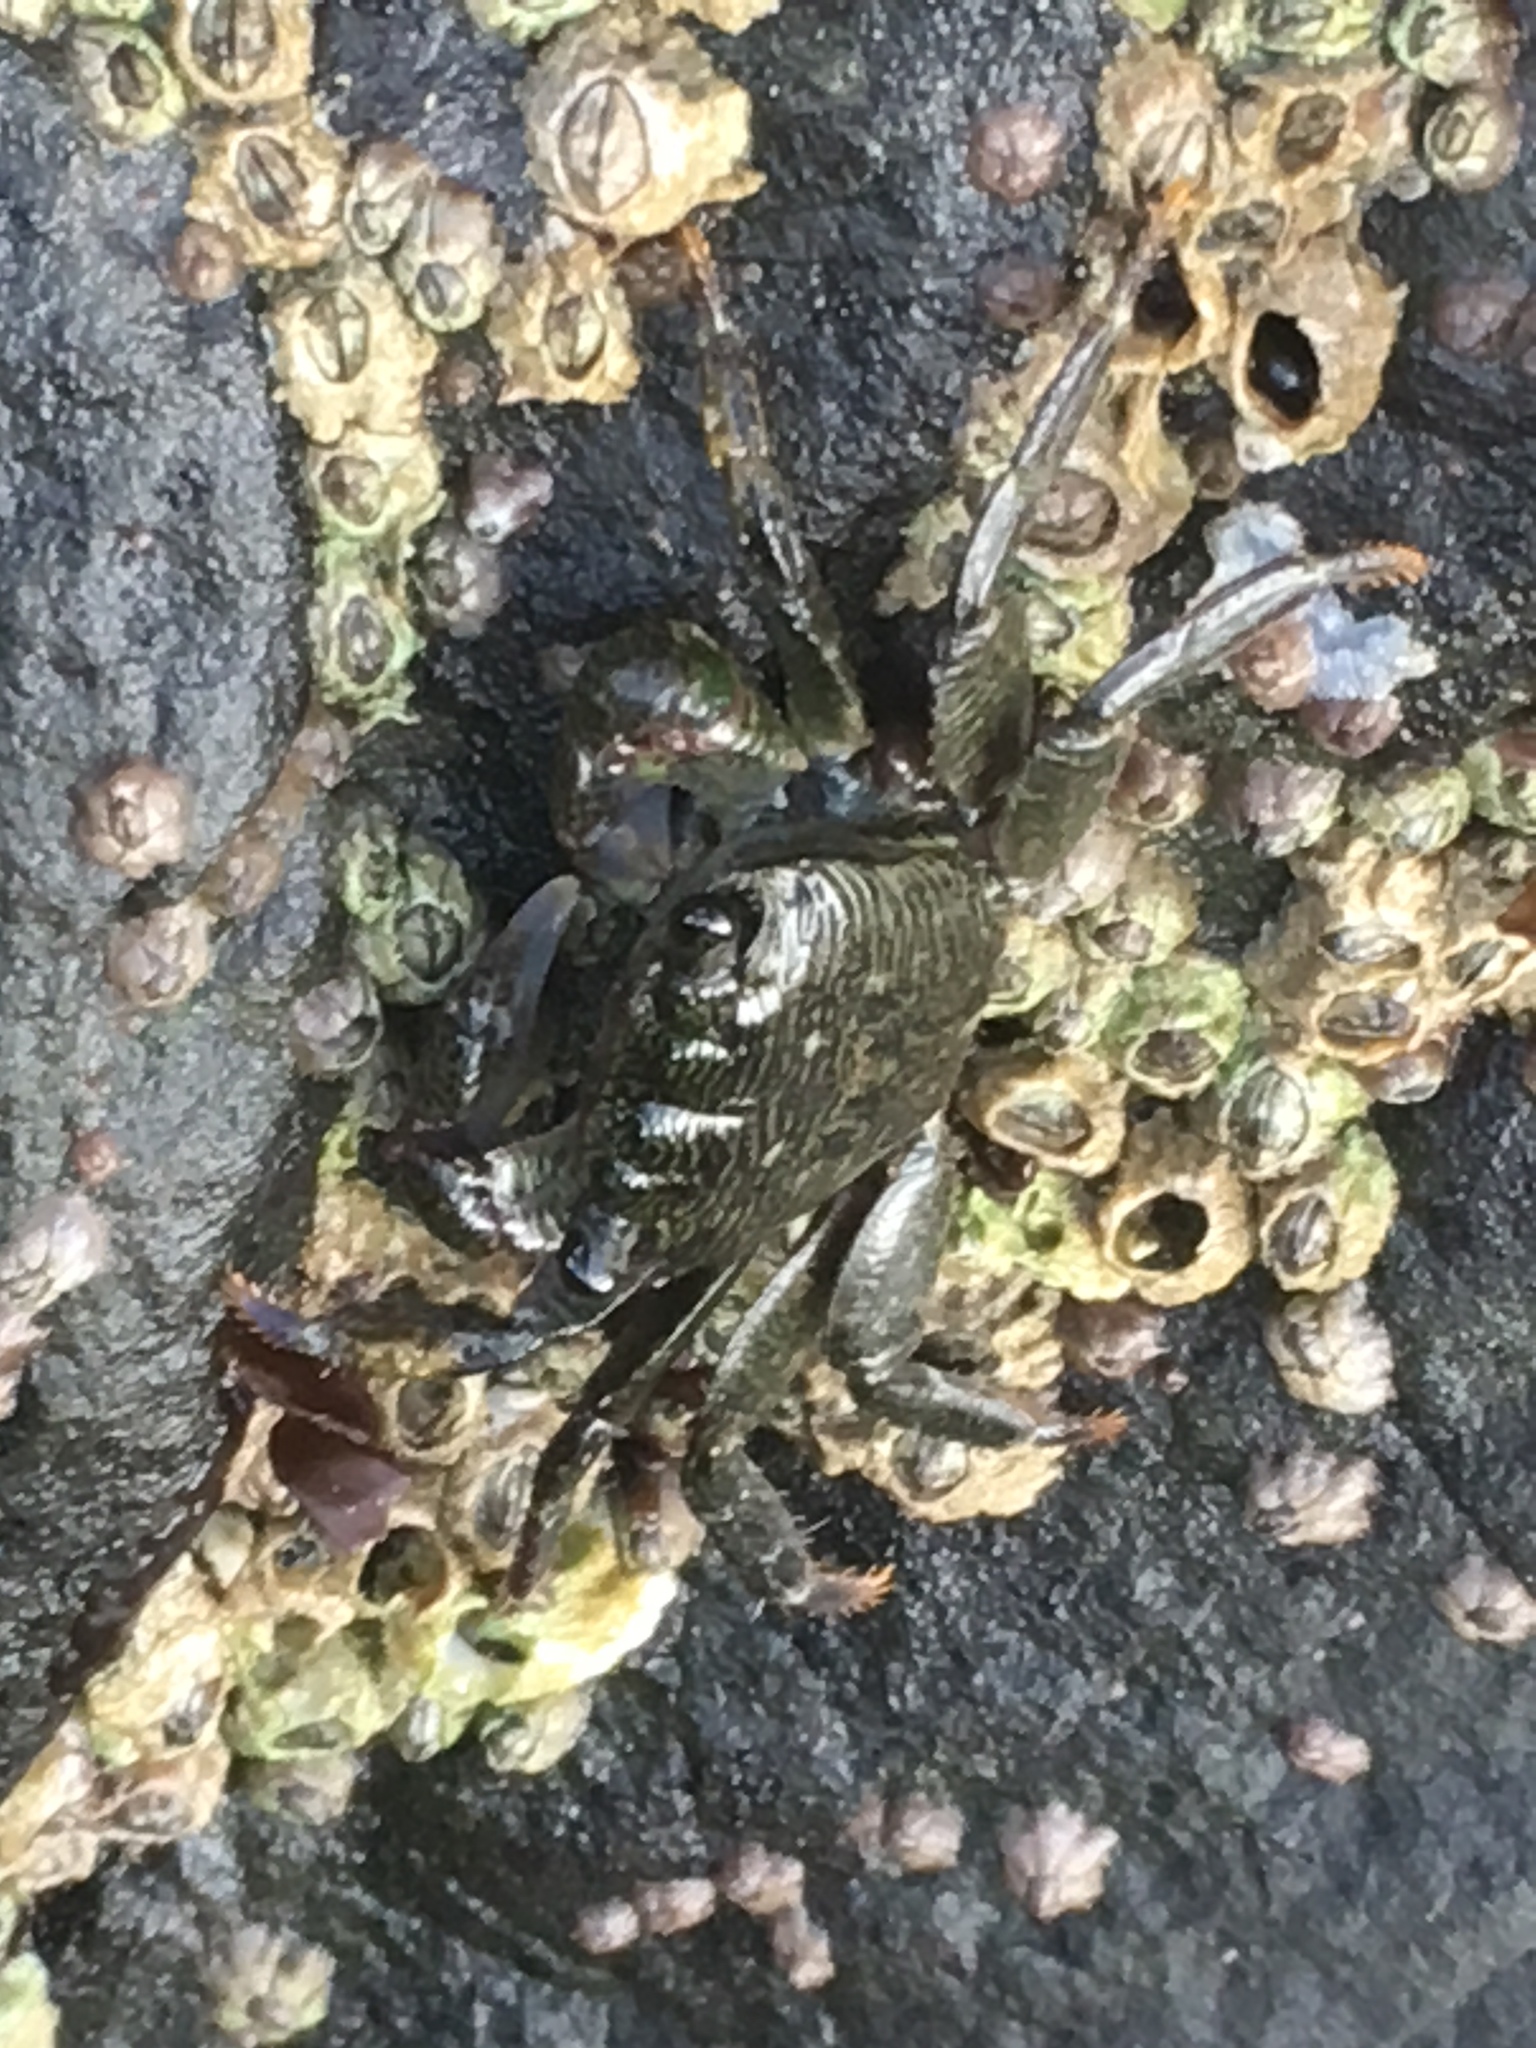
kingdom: Animalia
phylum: Arthropoda
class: Malacostraca
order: Decapoda
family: Grapsidae
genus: Pachygrapsus
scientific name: Pachygrapsus crassipes
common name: Striped shore crab
